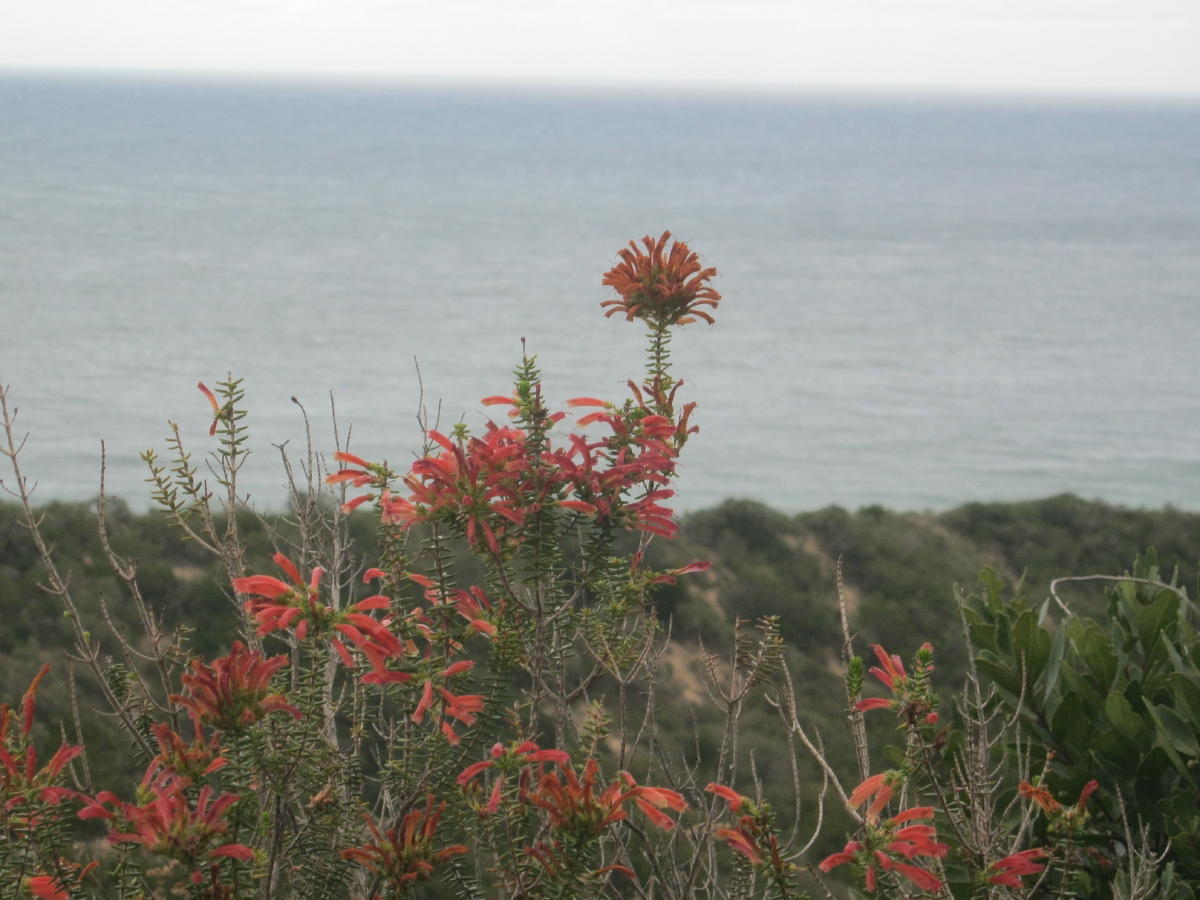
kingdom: Plantae
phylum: Tracheophyta
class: Magnoliopsida
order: Ericales
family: Ericaceae
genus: Erica
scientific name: Erica glandulosa
